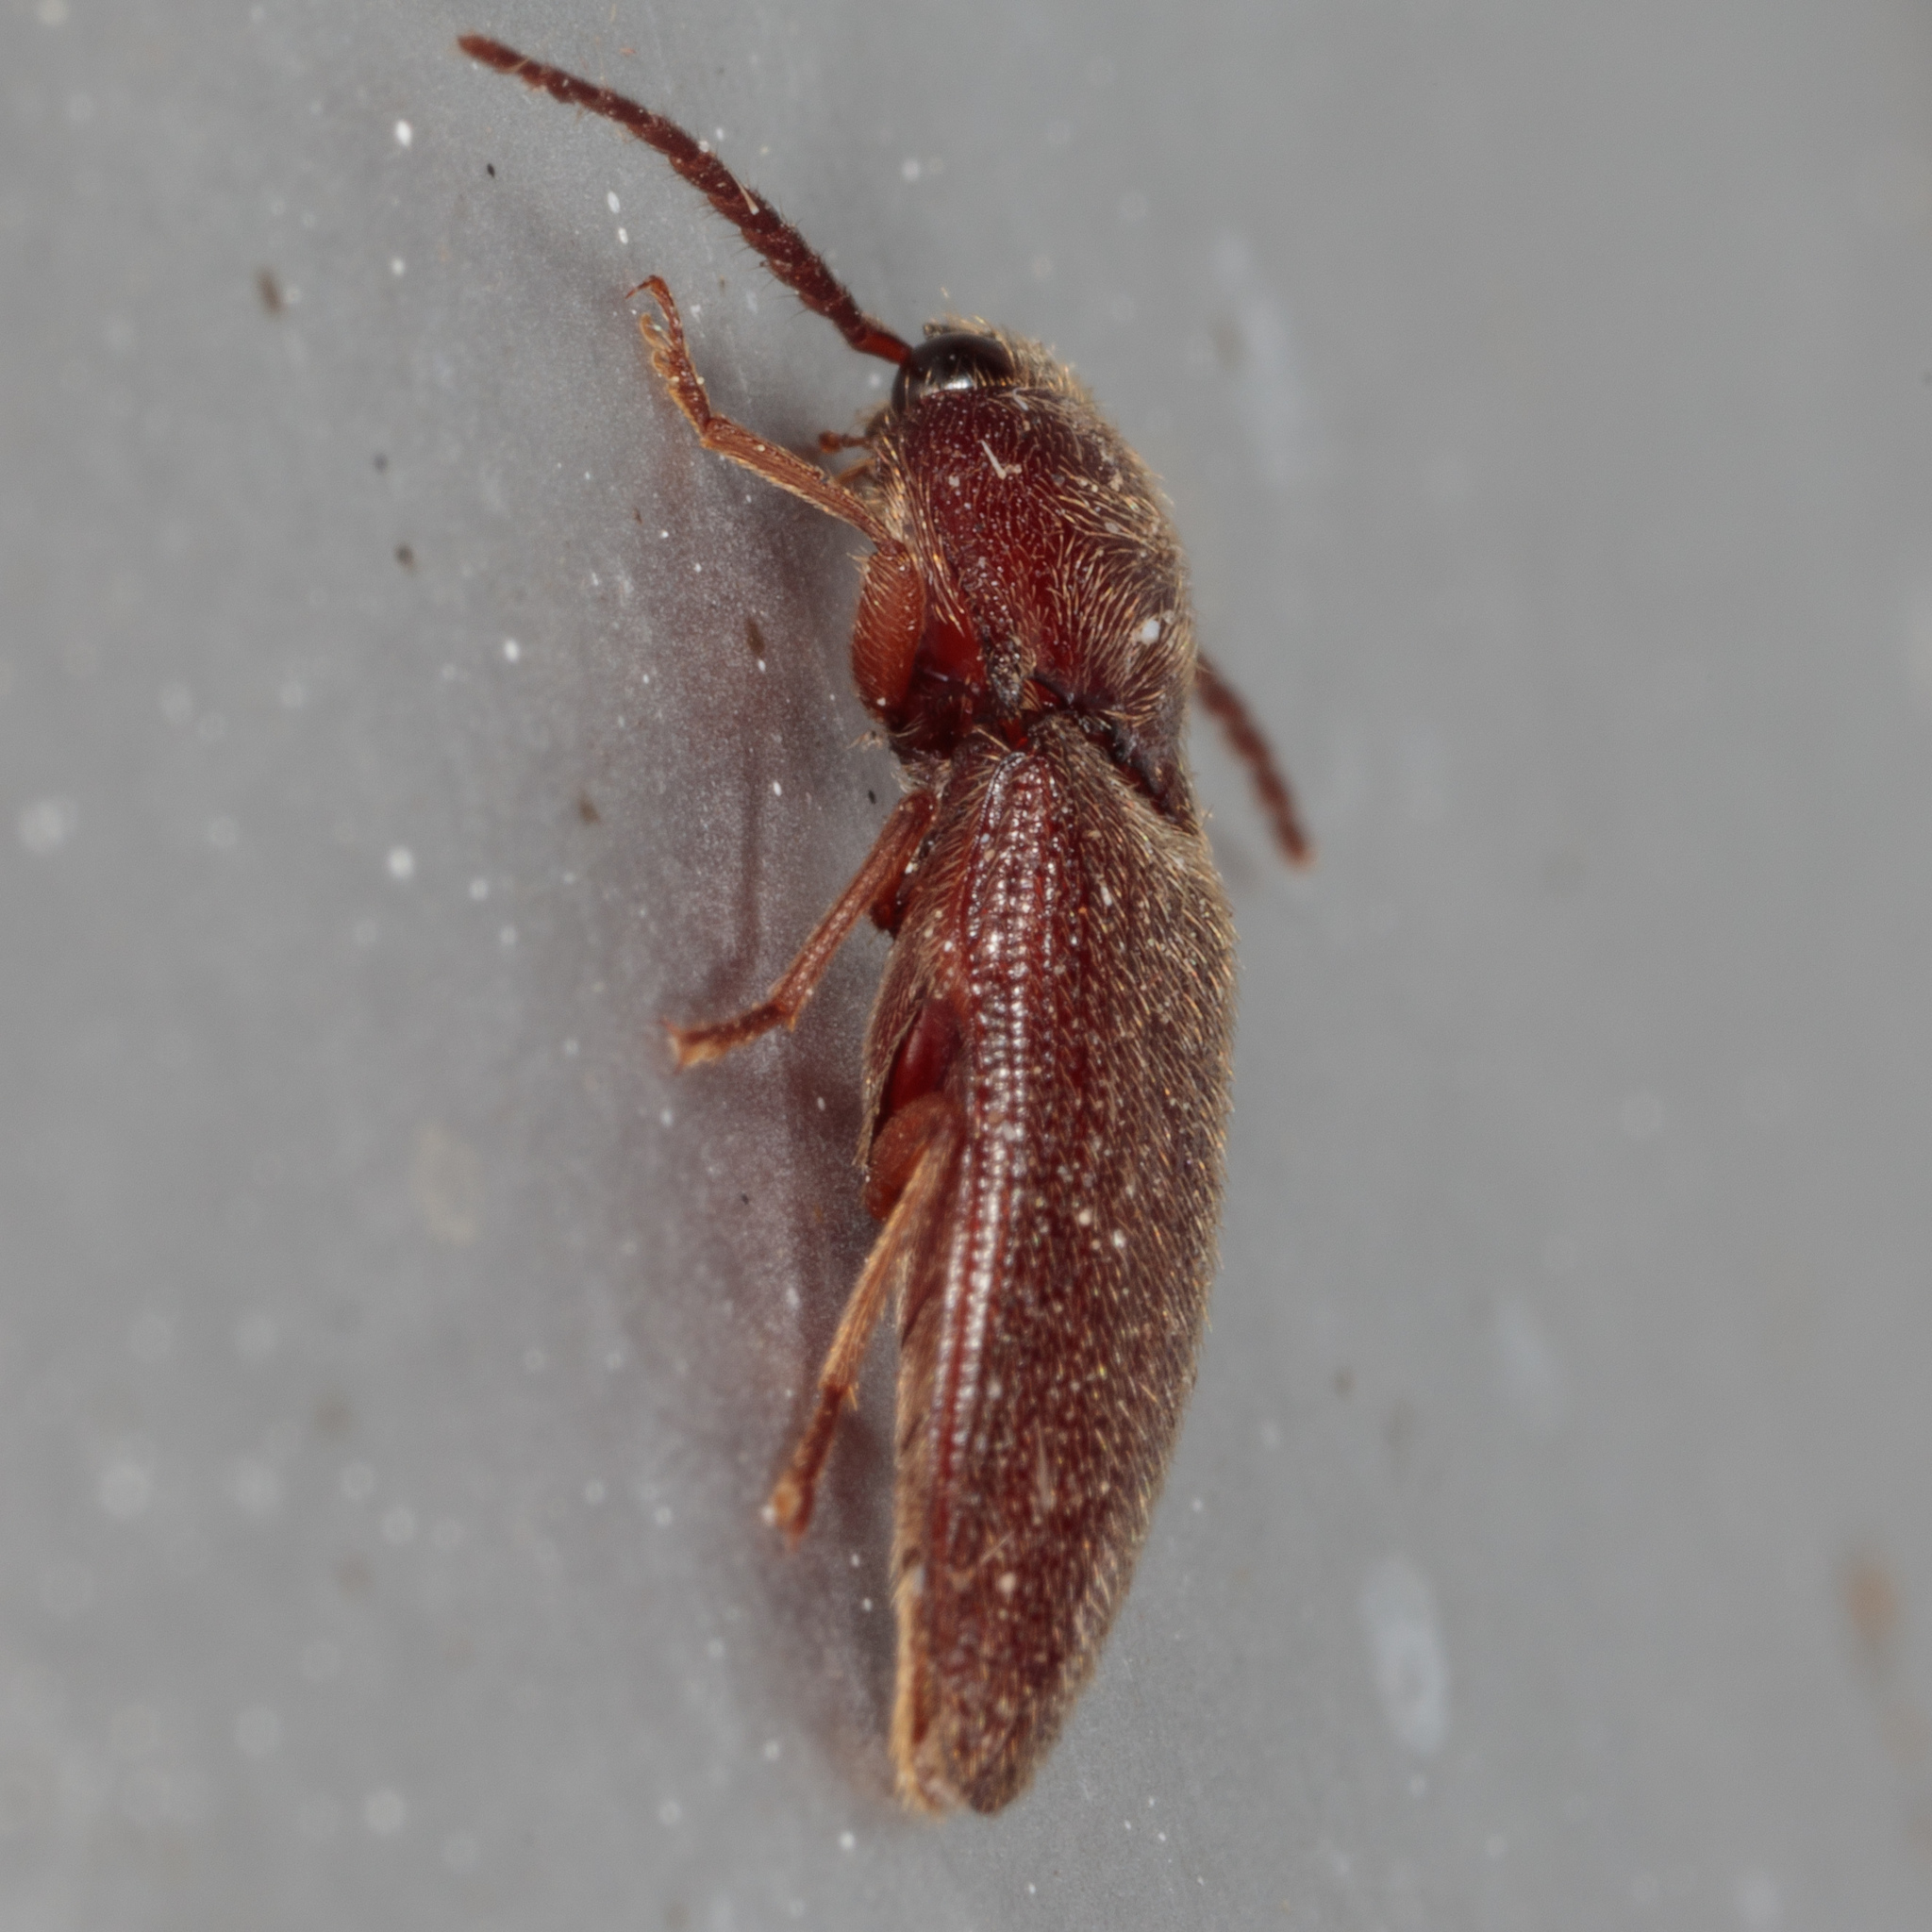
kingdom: Animalia
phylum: Arthropoda
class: Insecta
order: Coleoptera
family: Elateridae
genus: Dipropus
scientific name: Dipropus
